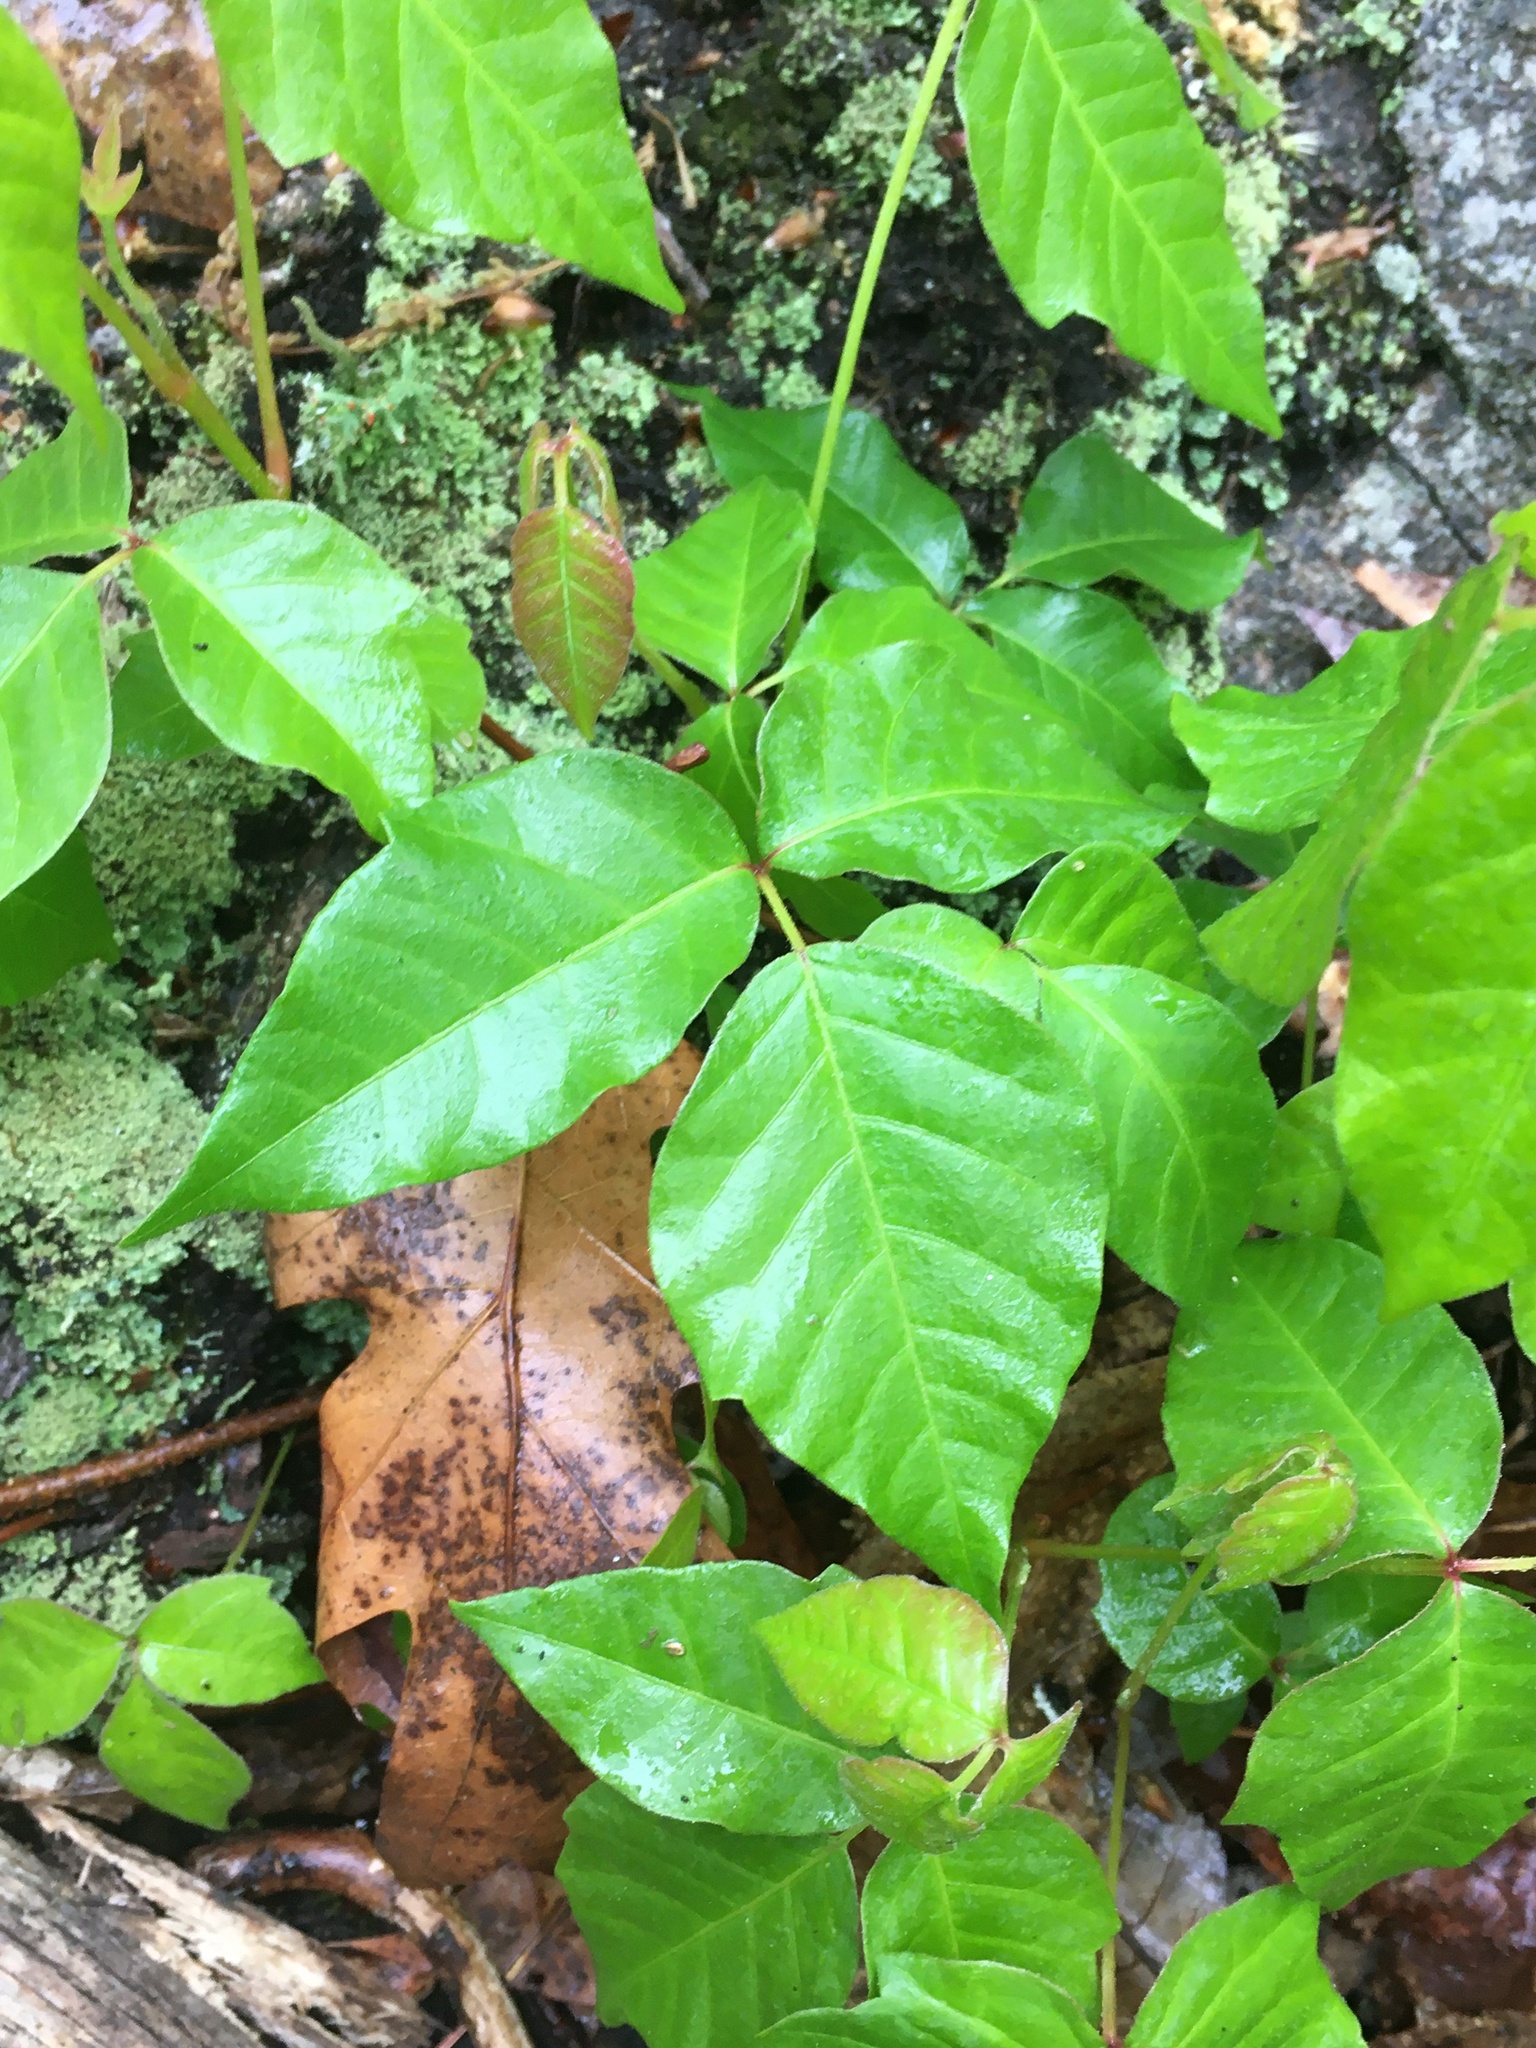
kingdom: Plantae
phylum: Tracheophyta
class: Magnoliopsida
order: Sapindales
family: Anacardiaceae
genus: Toxicodendron
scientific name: Toxicodendron radicans
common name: Poison ivy
